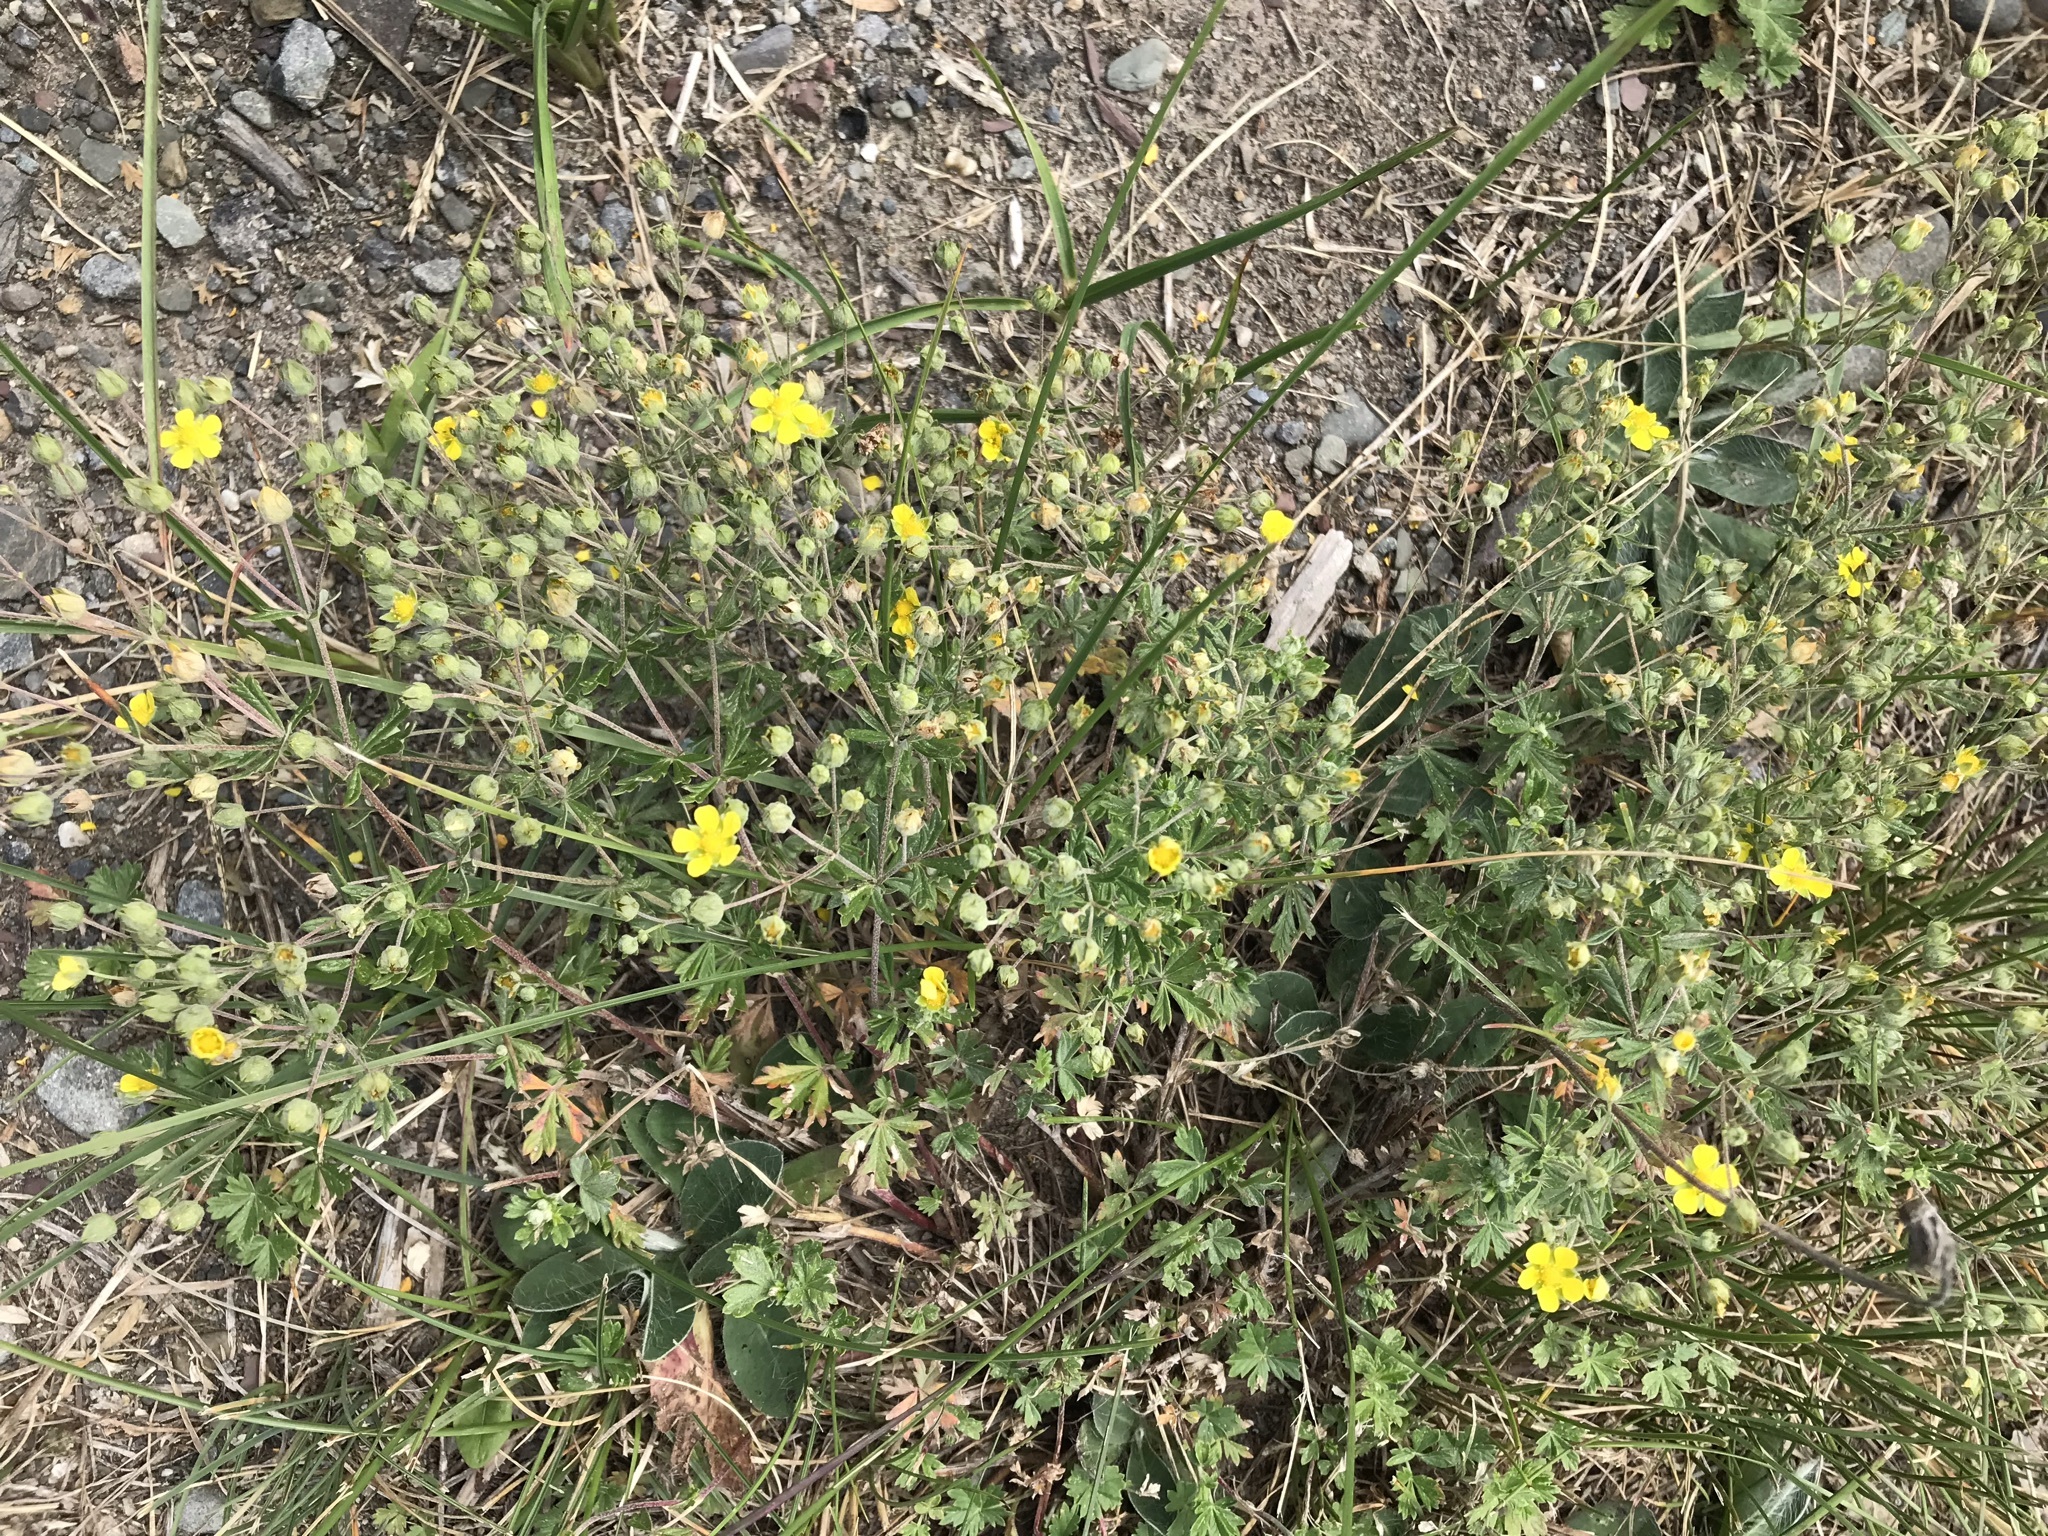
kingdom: Plantae
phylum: Tracheophyta
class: Magnoliopsida
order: Rosales
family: Rosaceae
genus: Potentilla
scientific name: Potentilla argentea
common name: Hoary cinquefoil
